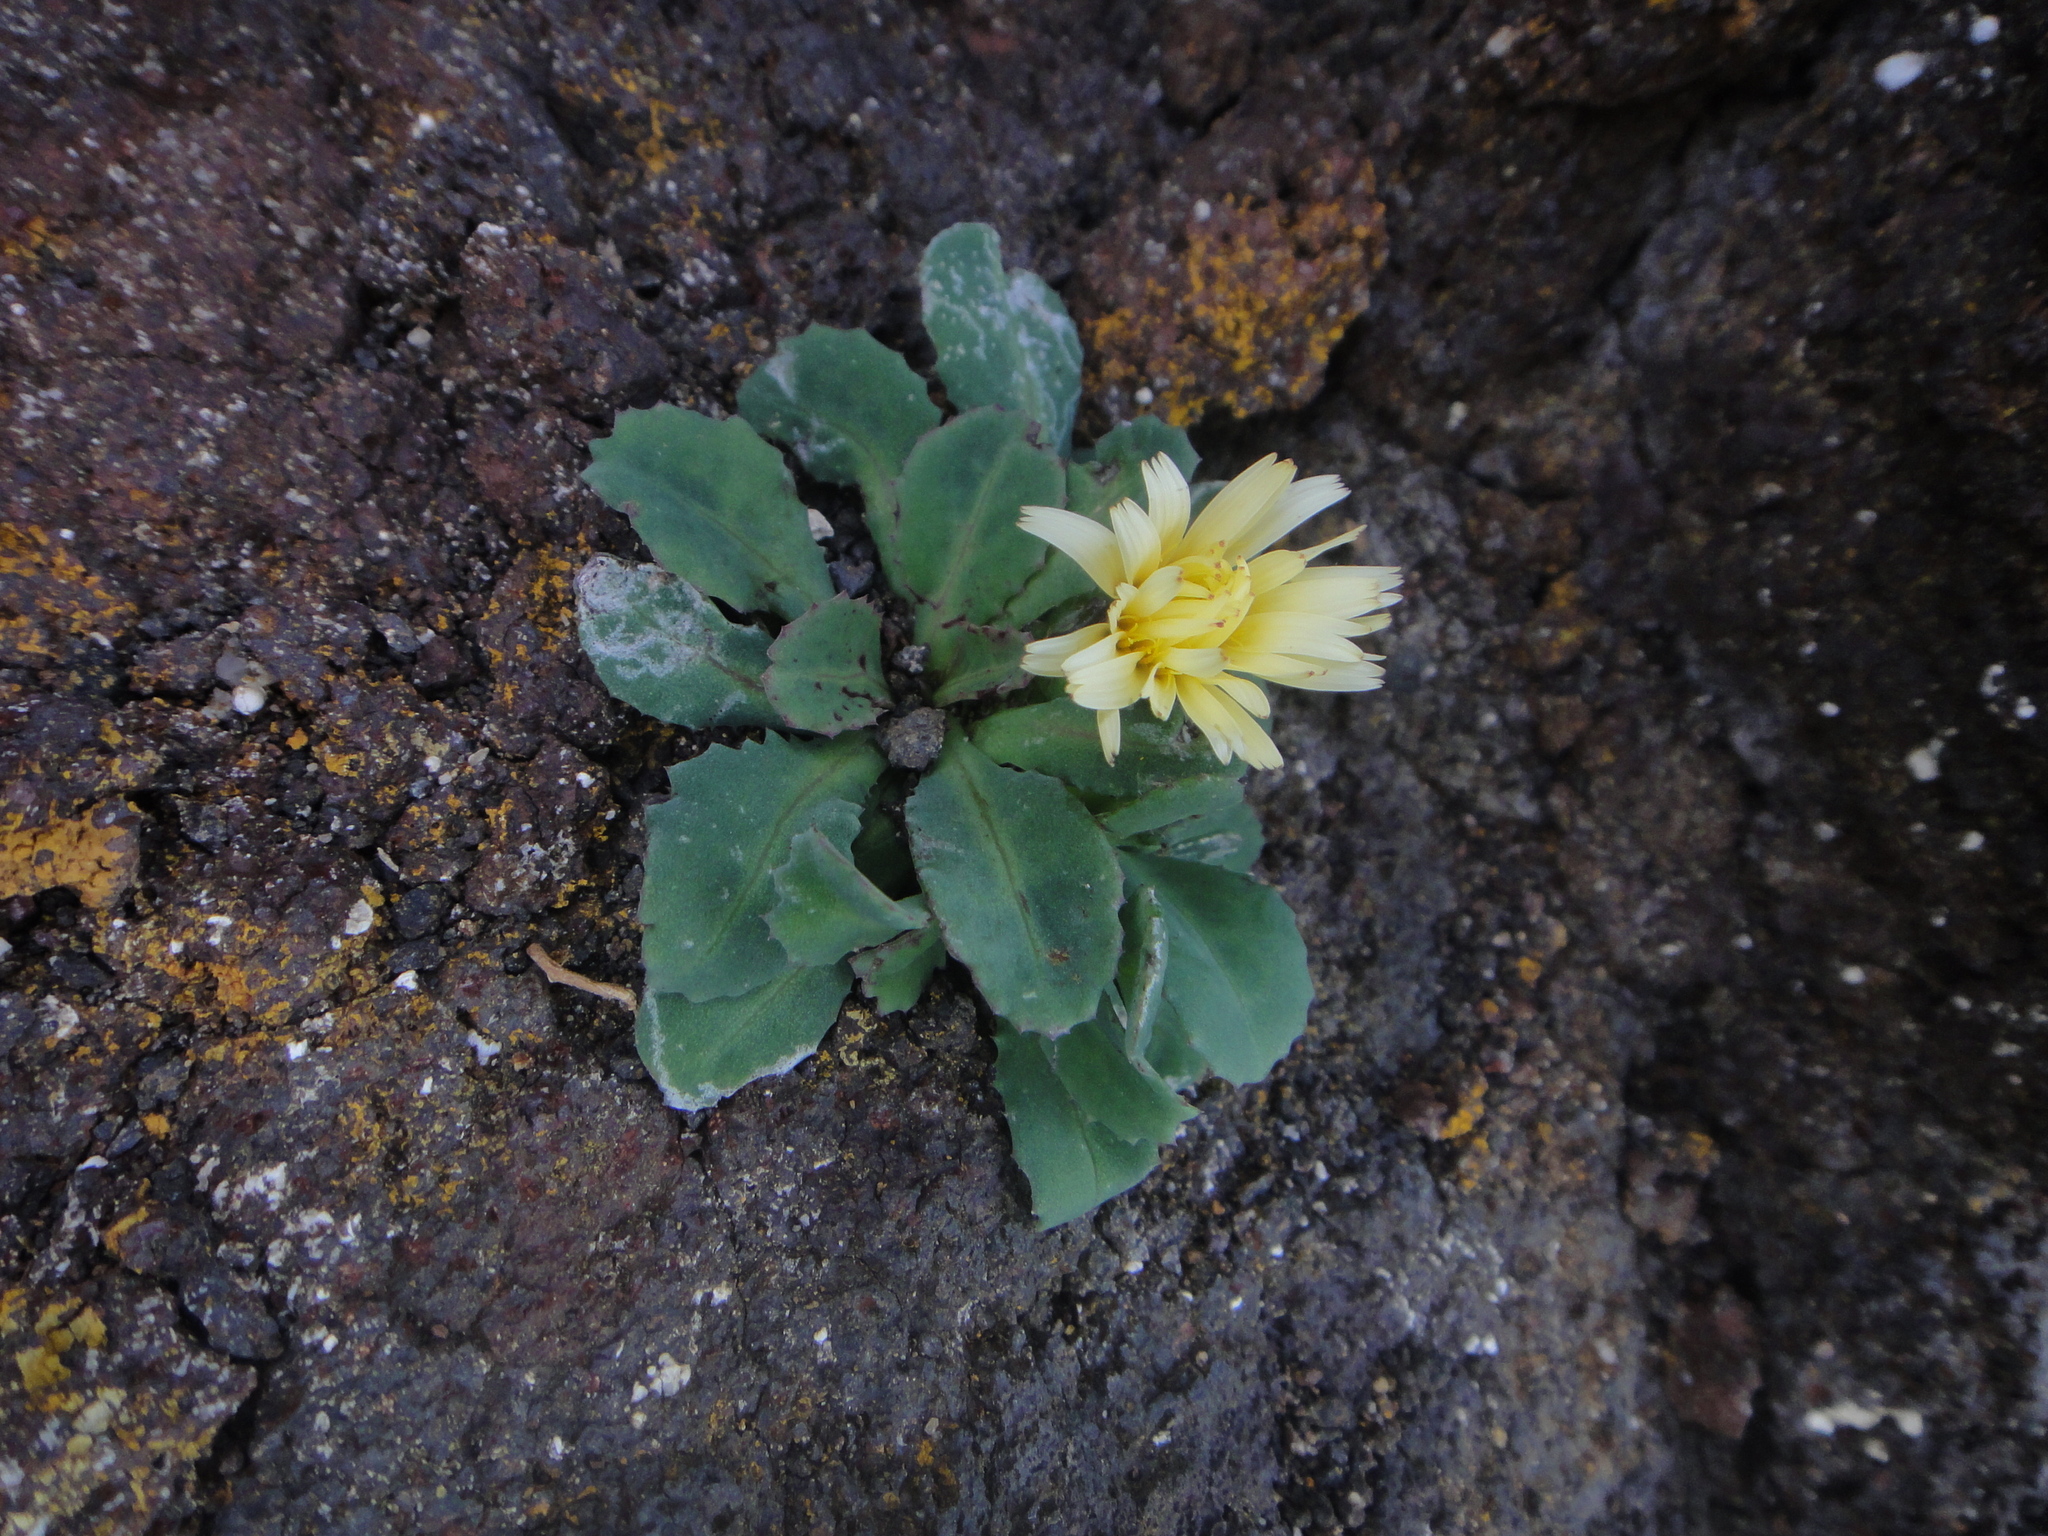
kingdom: Plantae
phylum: Tracheophyta
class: Magnoliopsida
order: Asterales
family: Asteraceae
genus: Reichardia
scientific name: Reichardia famarae
